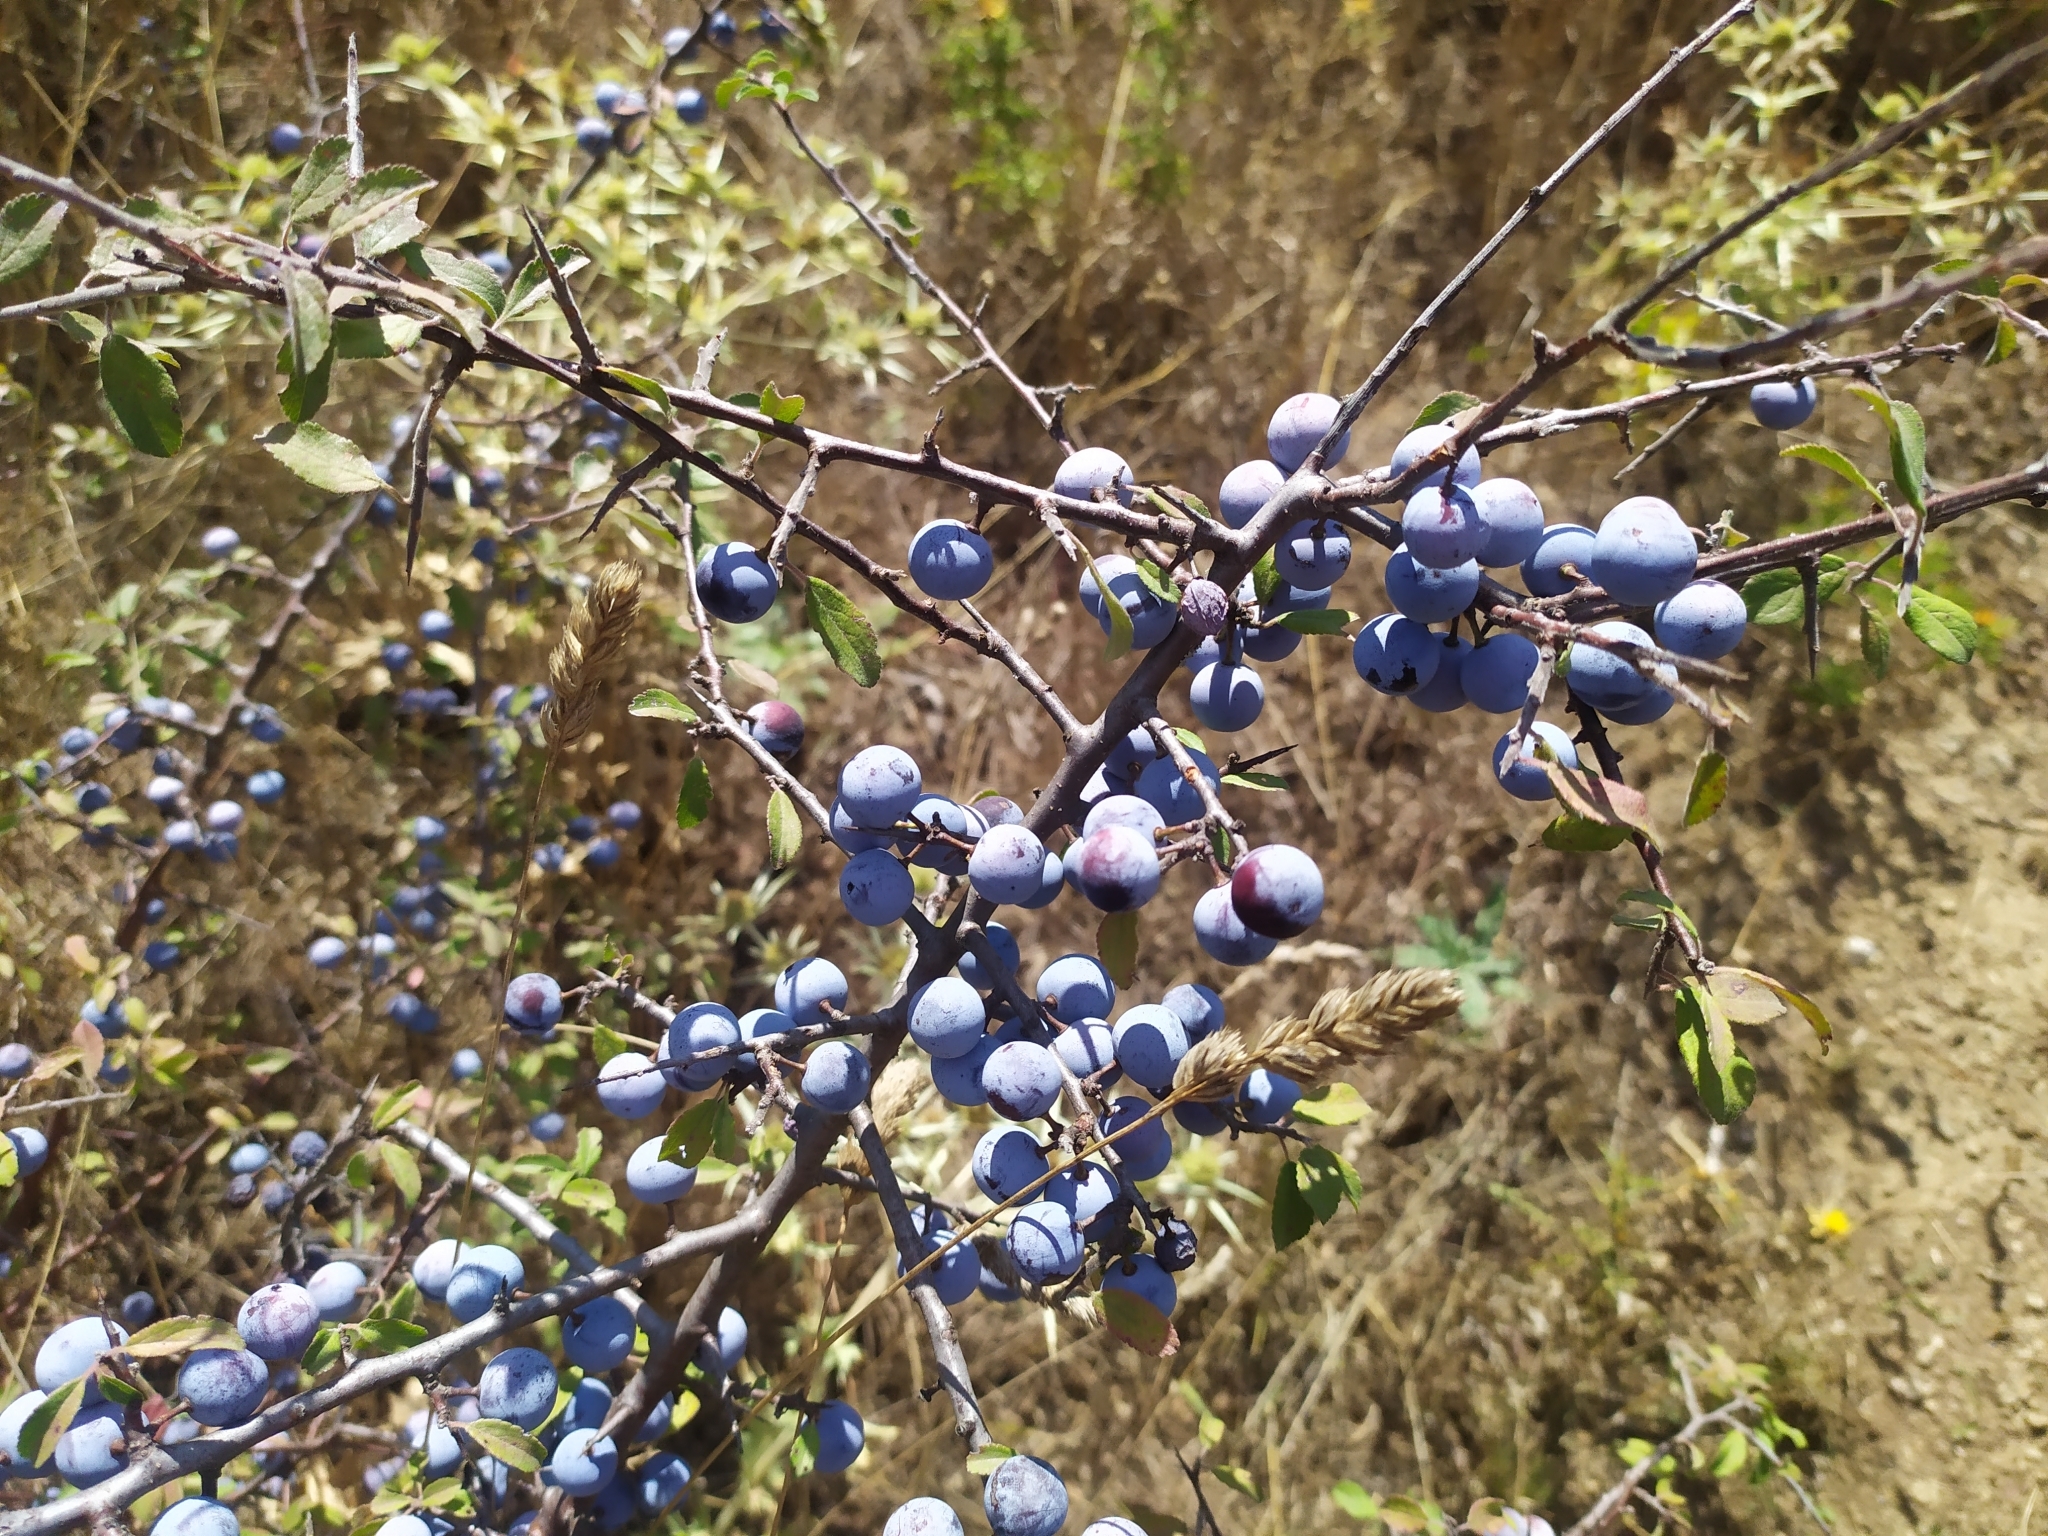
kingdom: Plantae
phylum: Tracheophyta
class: Magnoliopsida
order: Rosales
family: Rosaceae
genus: Prunus
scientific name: Prunus spinosa
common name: Blackthorn
